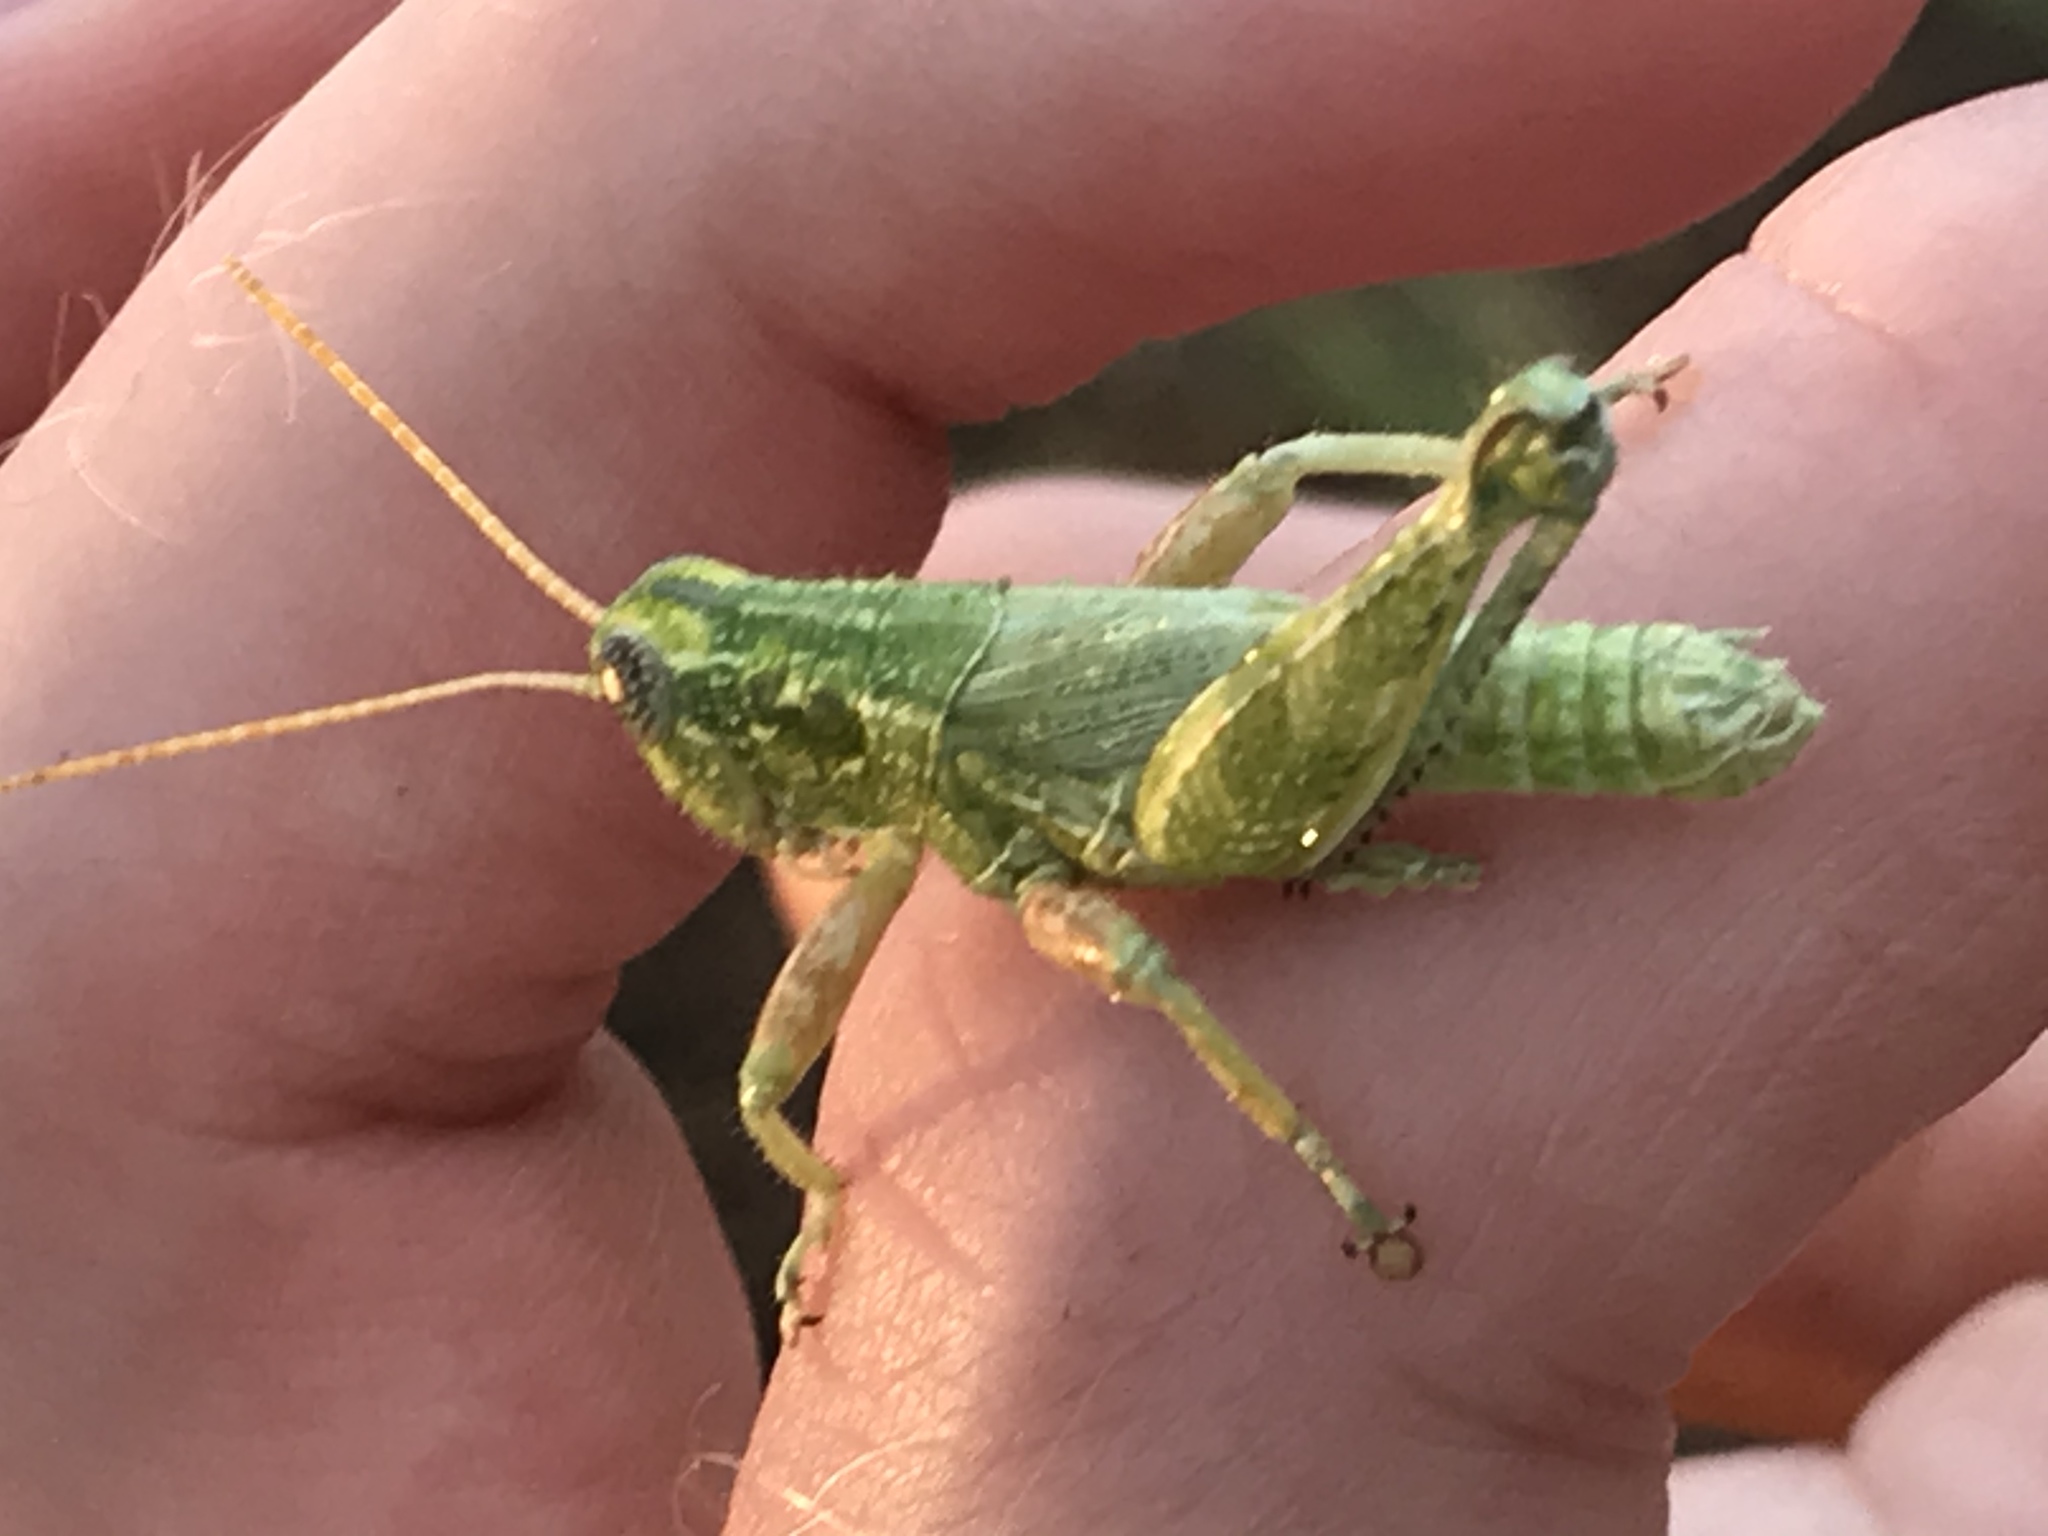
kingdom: Animalia
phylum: Arthropoda
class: Insecta
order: Orthoptera
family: Acrididae
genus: Campylacantha
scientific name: Campylacantha olivacea
